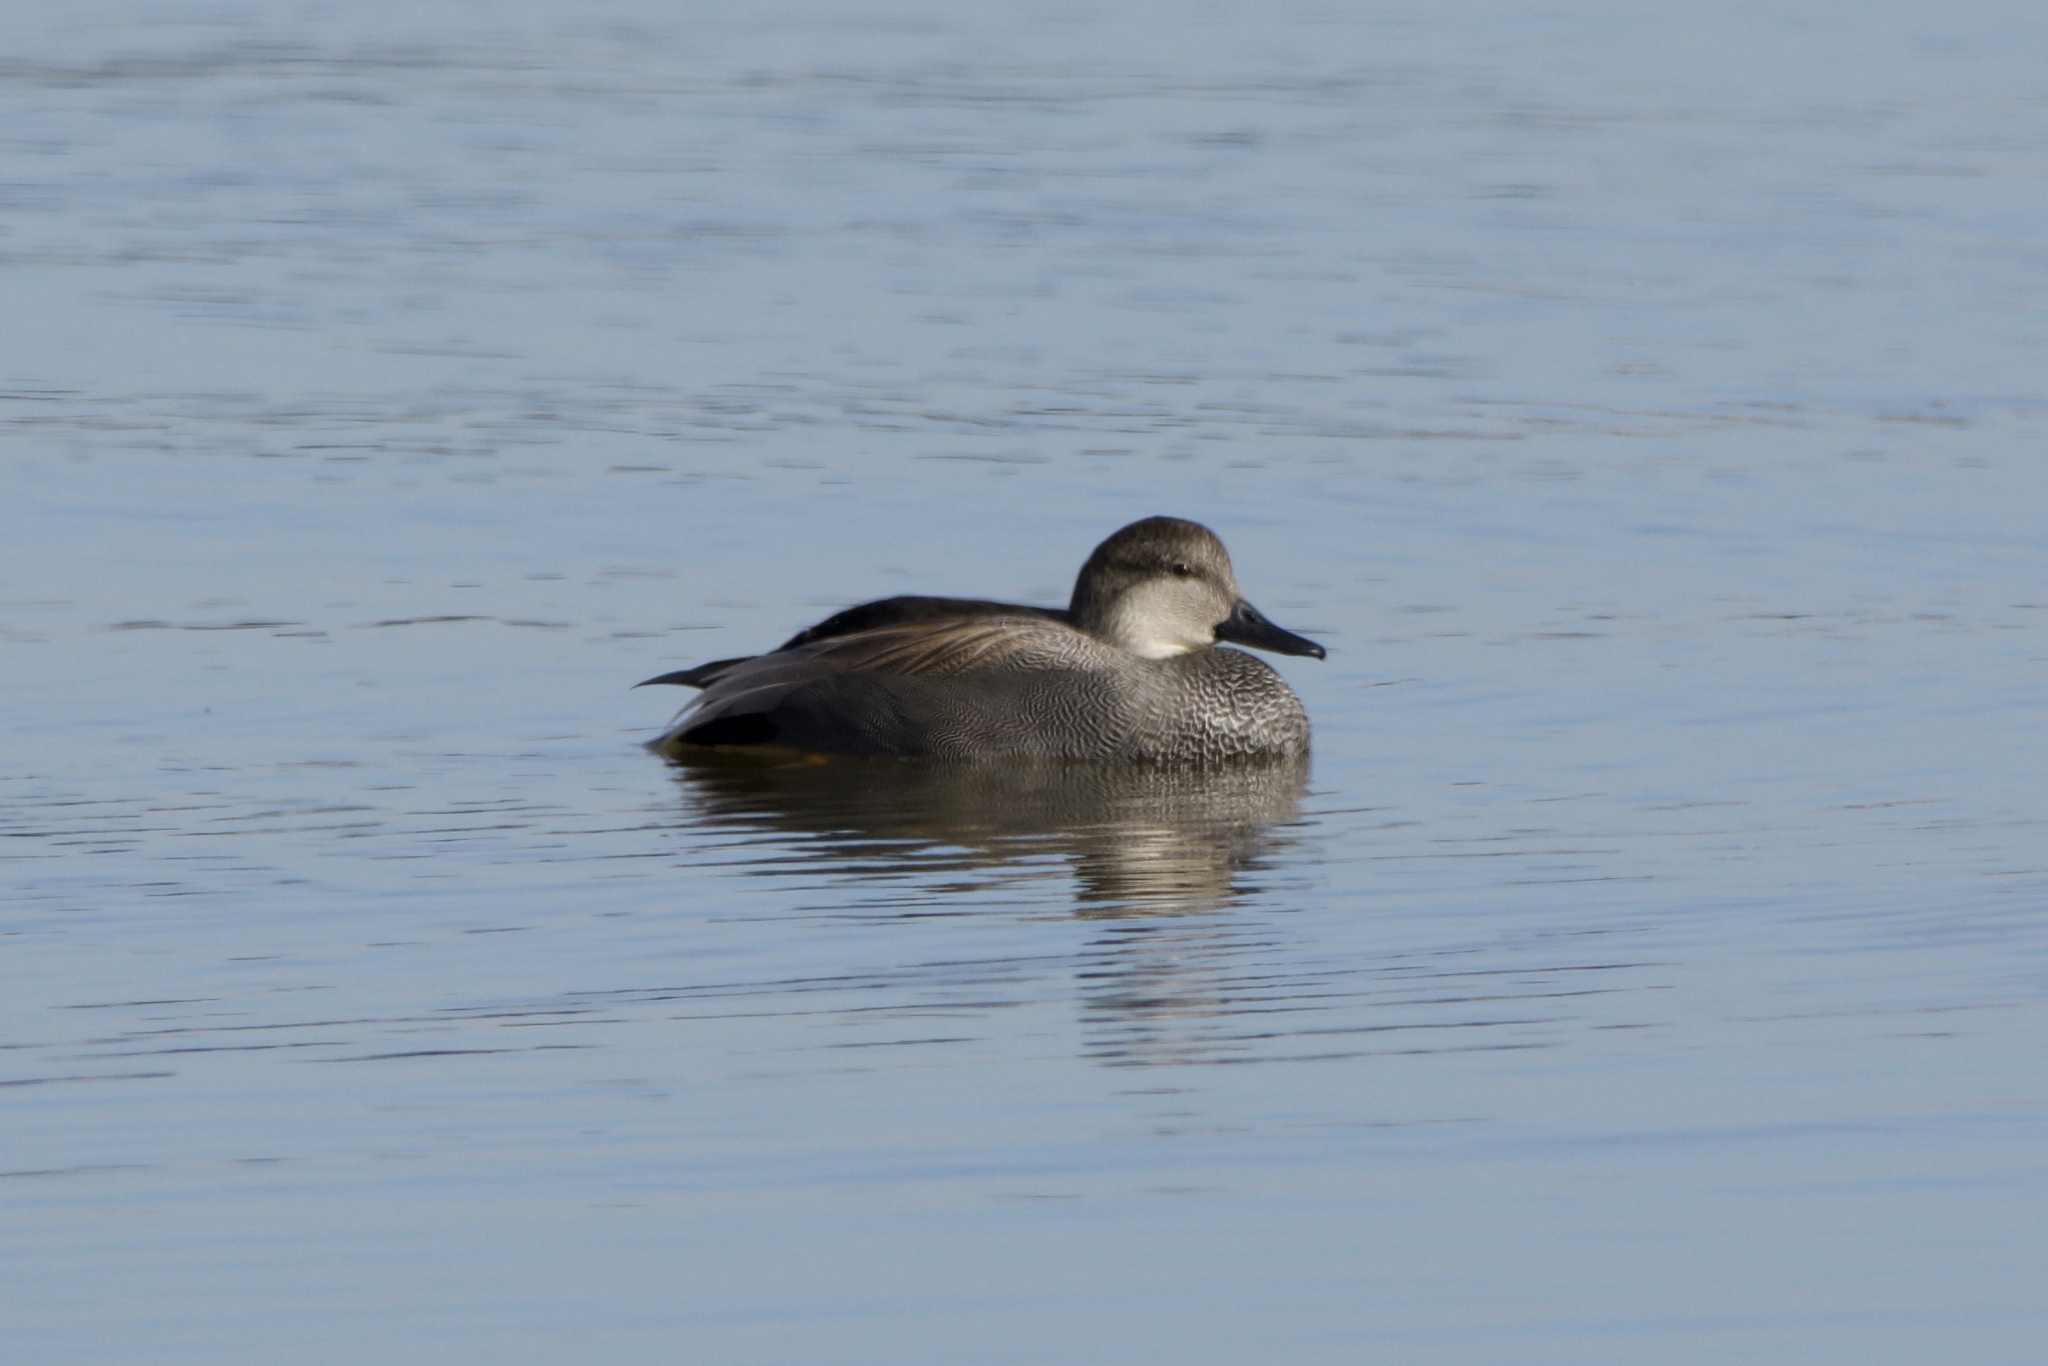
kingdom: Animalia
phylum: Chordata
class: Aves
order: Anseriformes
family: Anatidae
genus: Mareca
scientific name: Mareca strepera
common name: Gadwall
